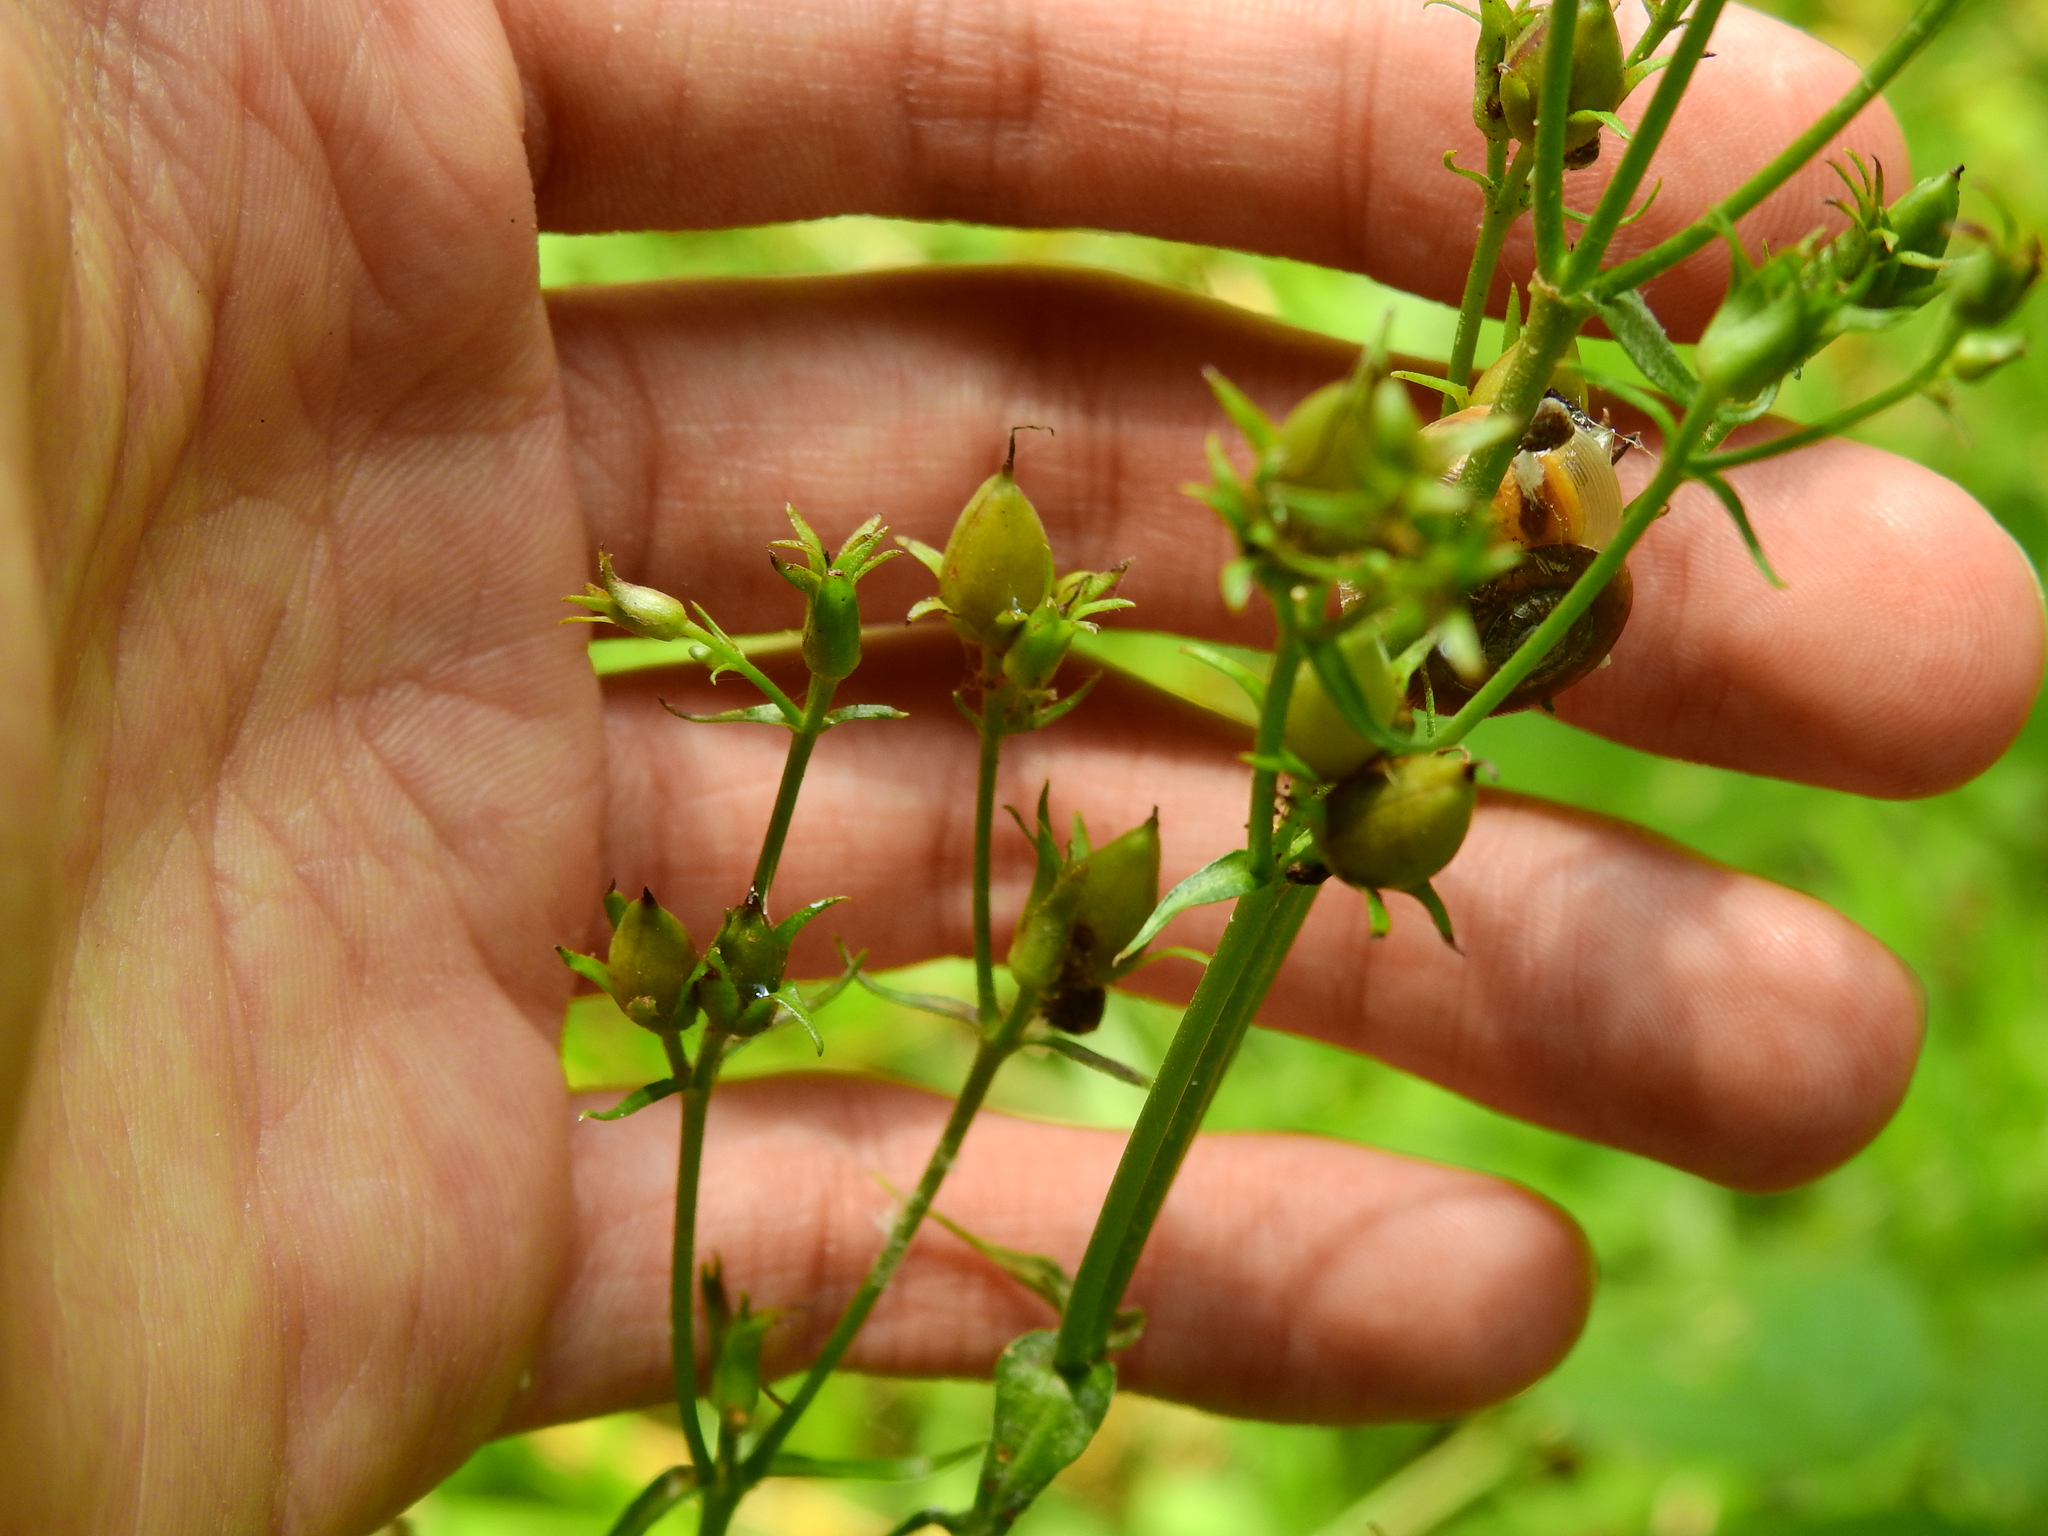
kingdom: Plantae
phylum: Tracheophyta
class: Magnoliopsida
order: Lamiales
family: Plantaginaceae
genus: Penstemon
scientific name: Penstemon digitalis
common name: Foxglove beardtongue
